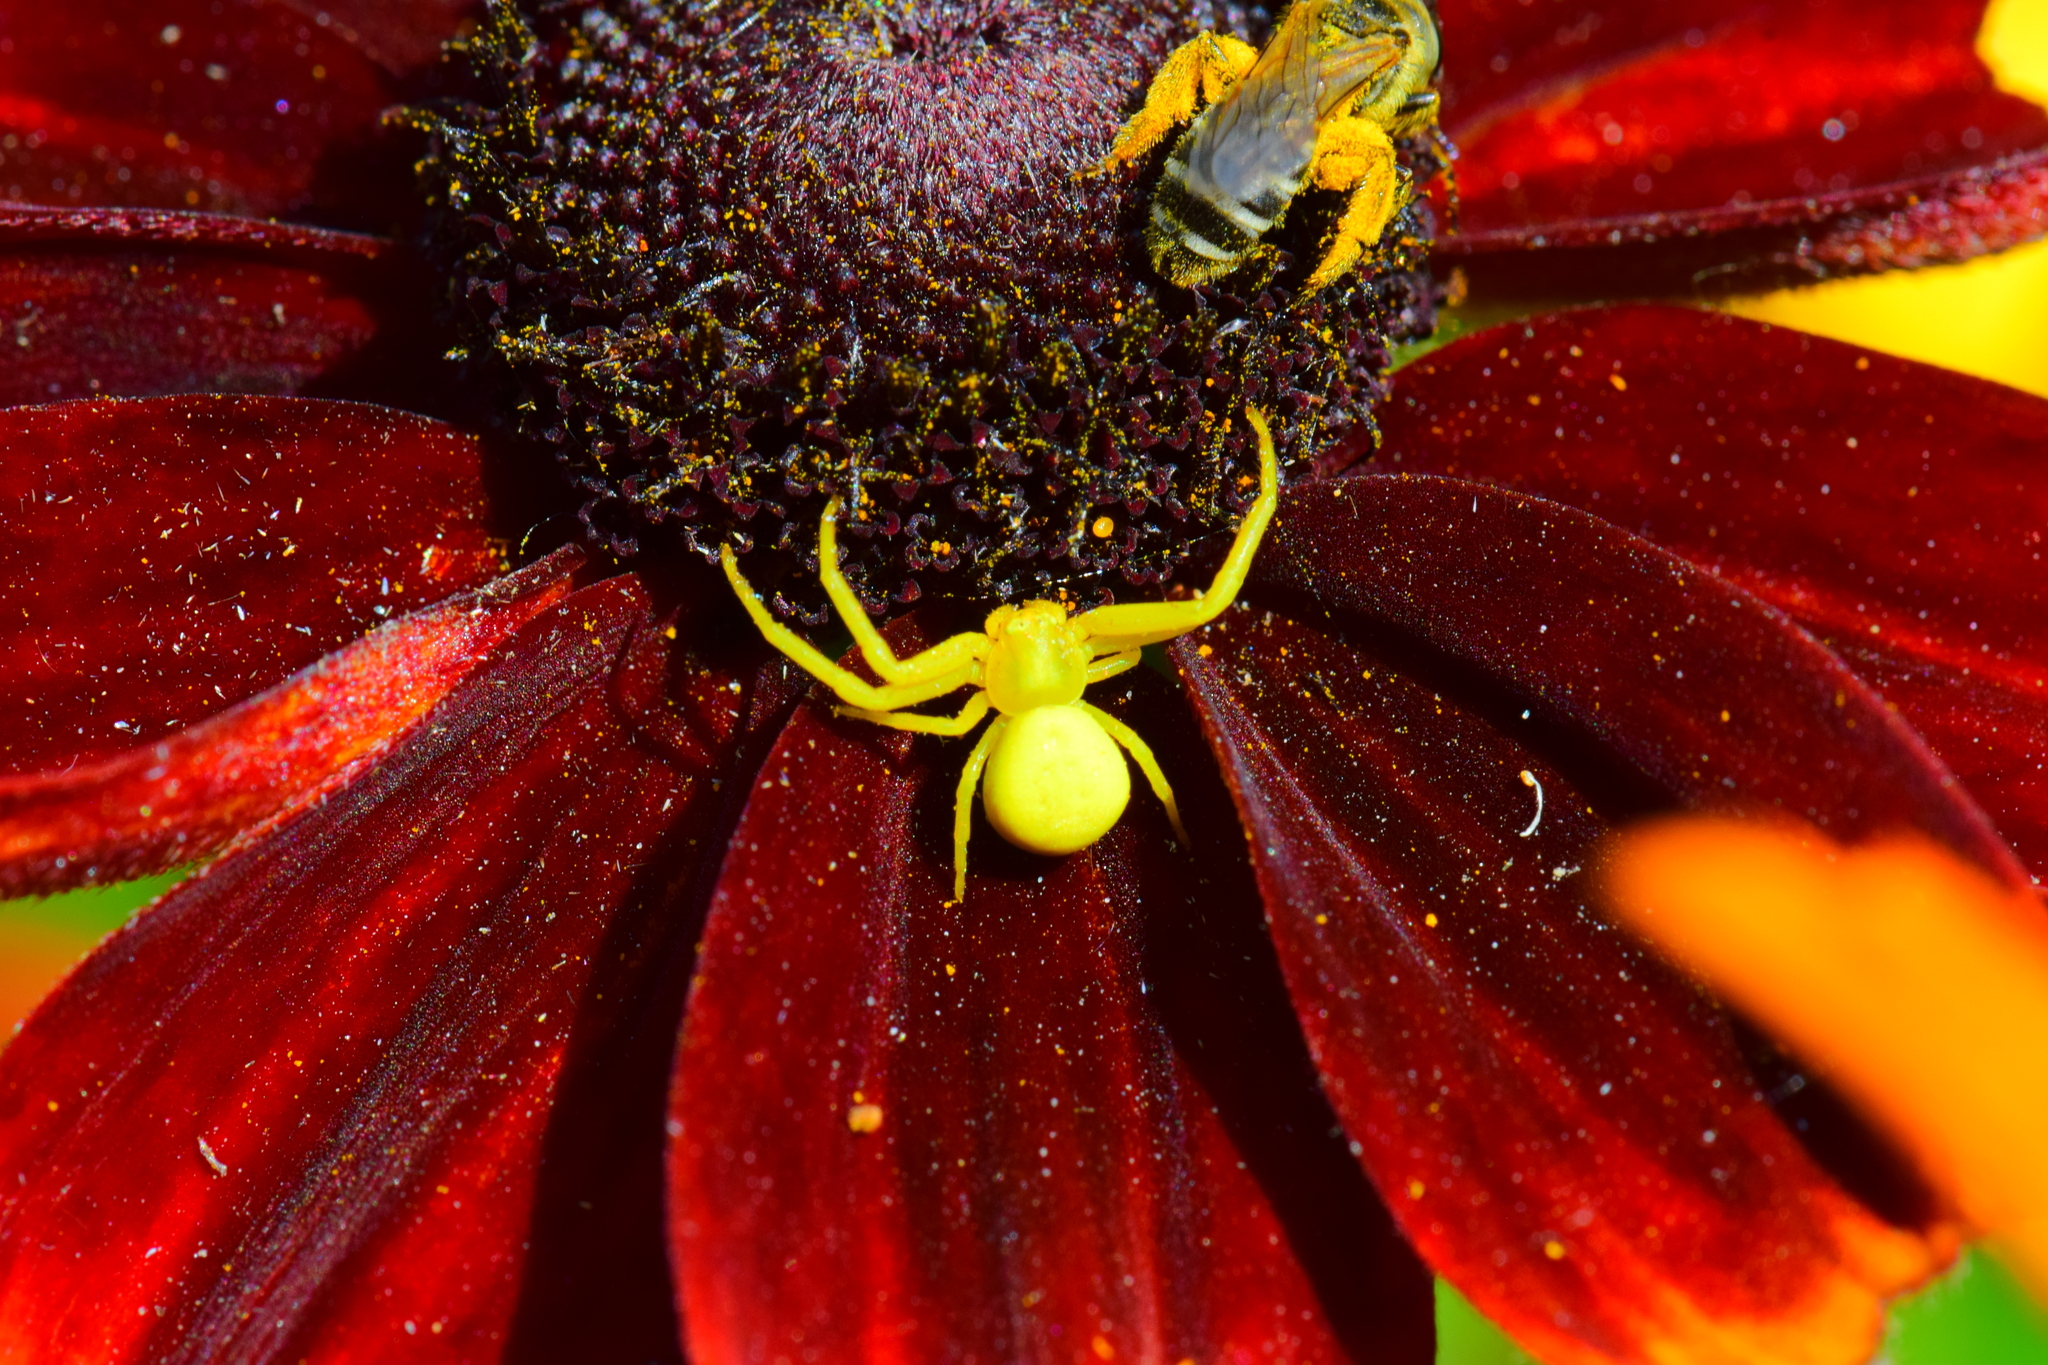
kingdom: Animalia
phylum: Arthropoda
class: Arachnida
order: Araneae
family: Thomisidae
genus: Misumena
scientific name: Misumena vatia
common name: Goldenrod crab spider
